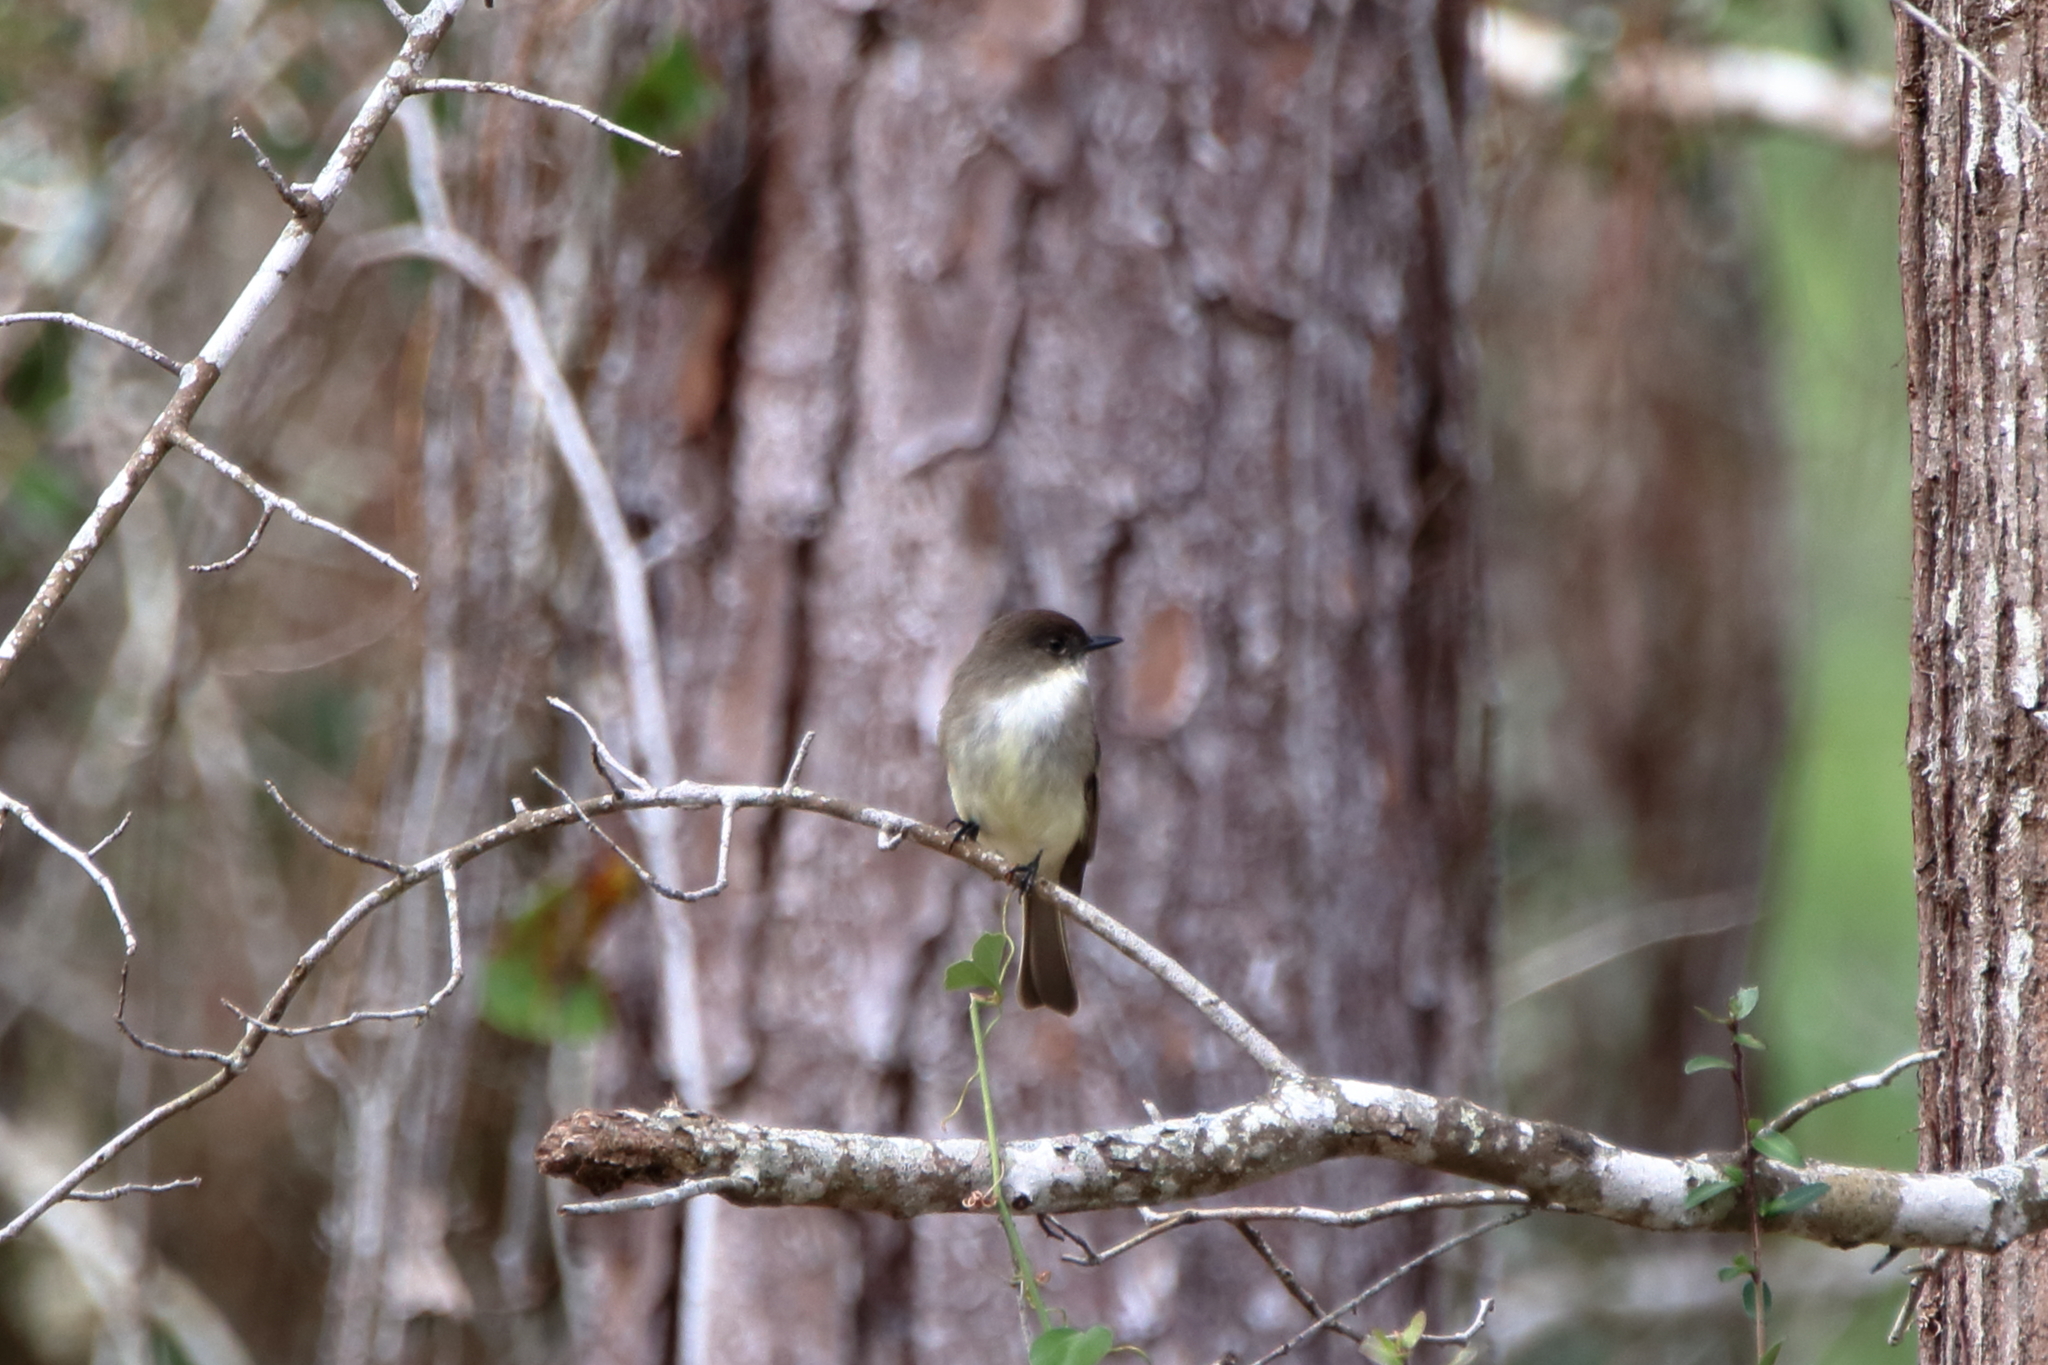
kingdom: Animalia
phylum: Chordata
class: Aves
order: Passeriformes
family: Tyrannidae
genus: Sayornis
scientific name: Sayornis phoebe
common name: Eastern phoebe
